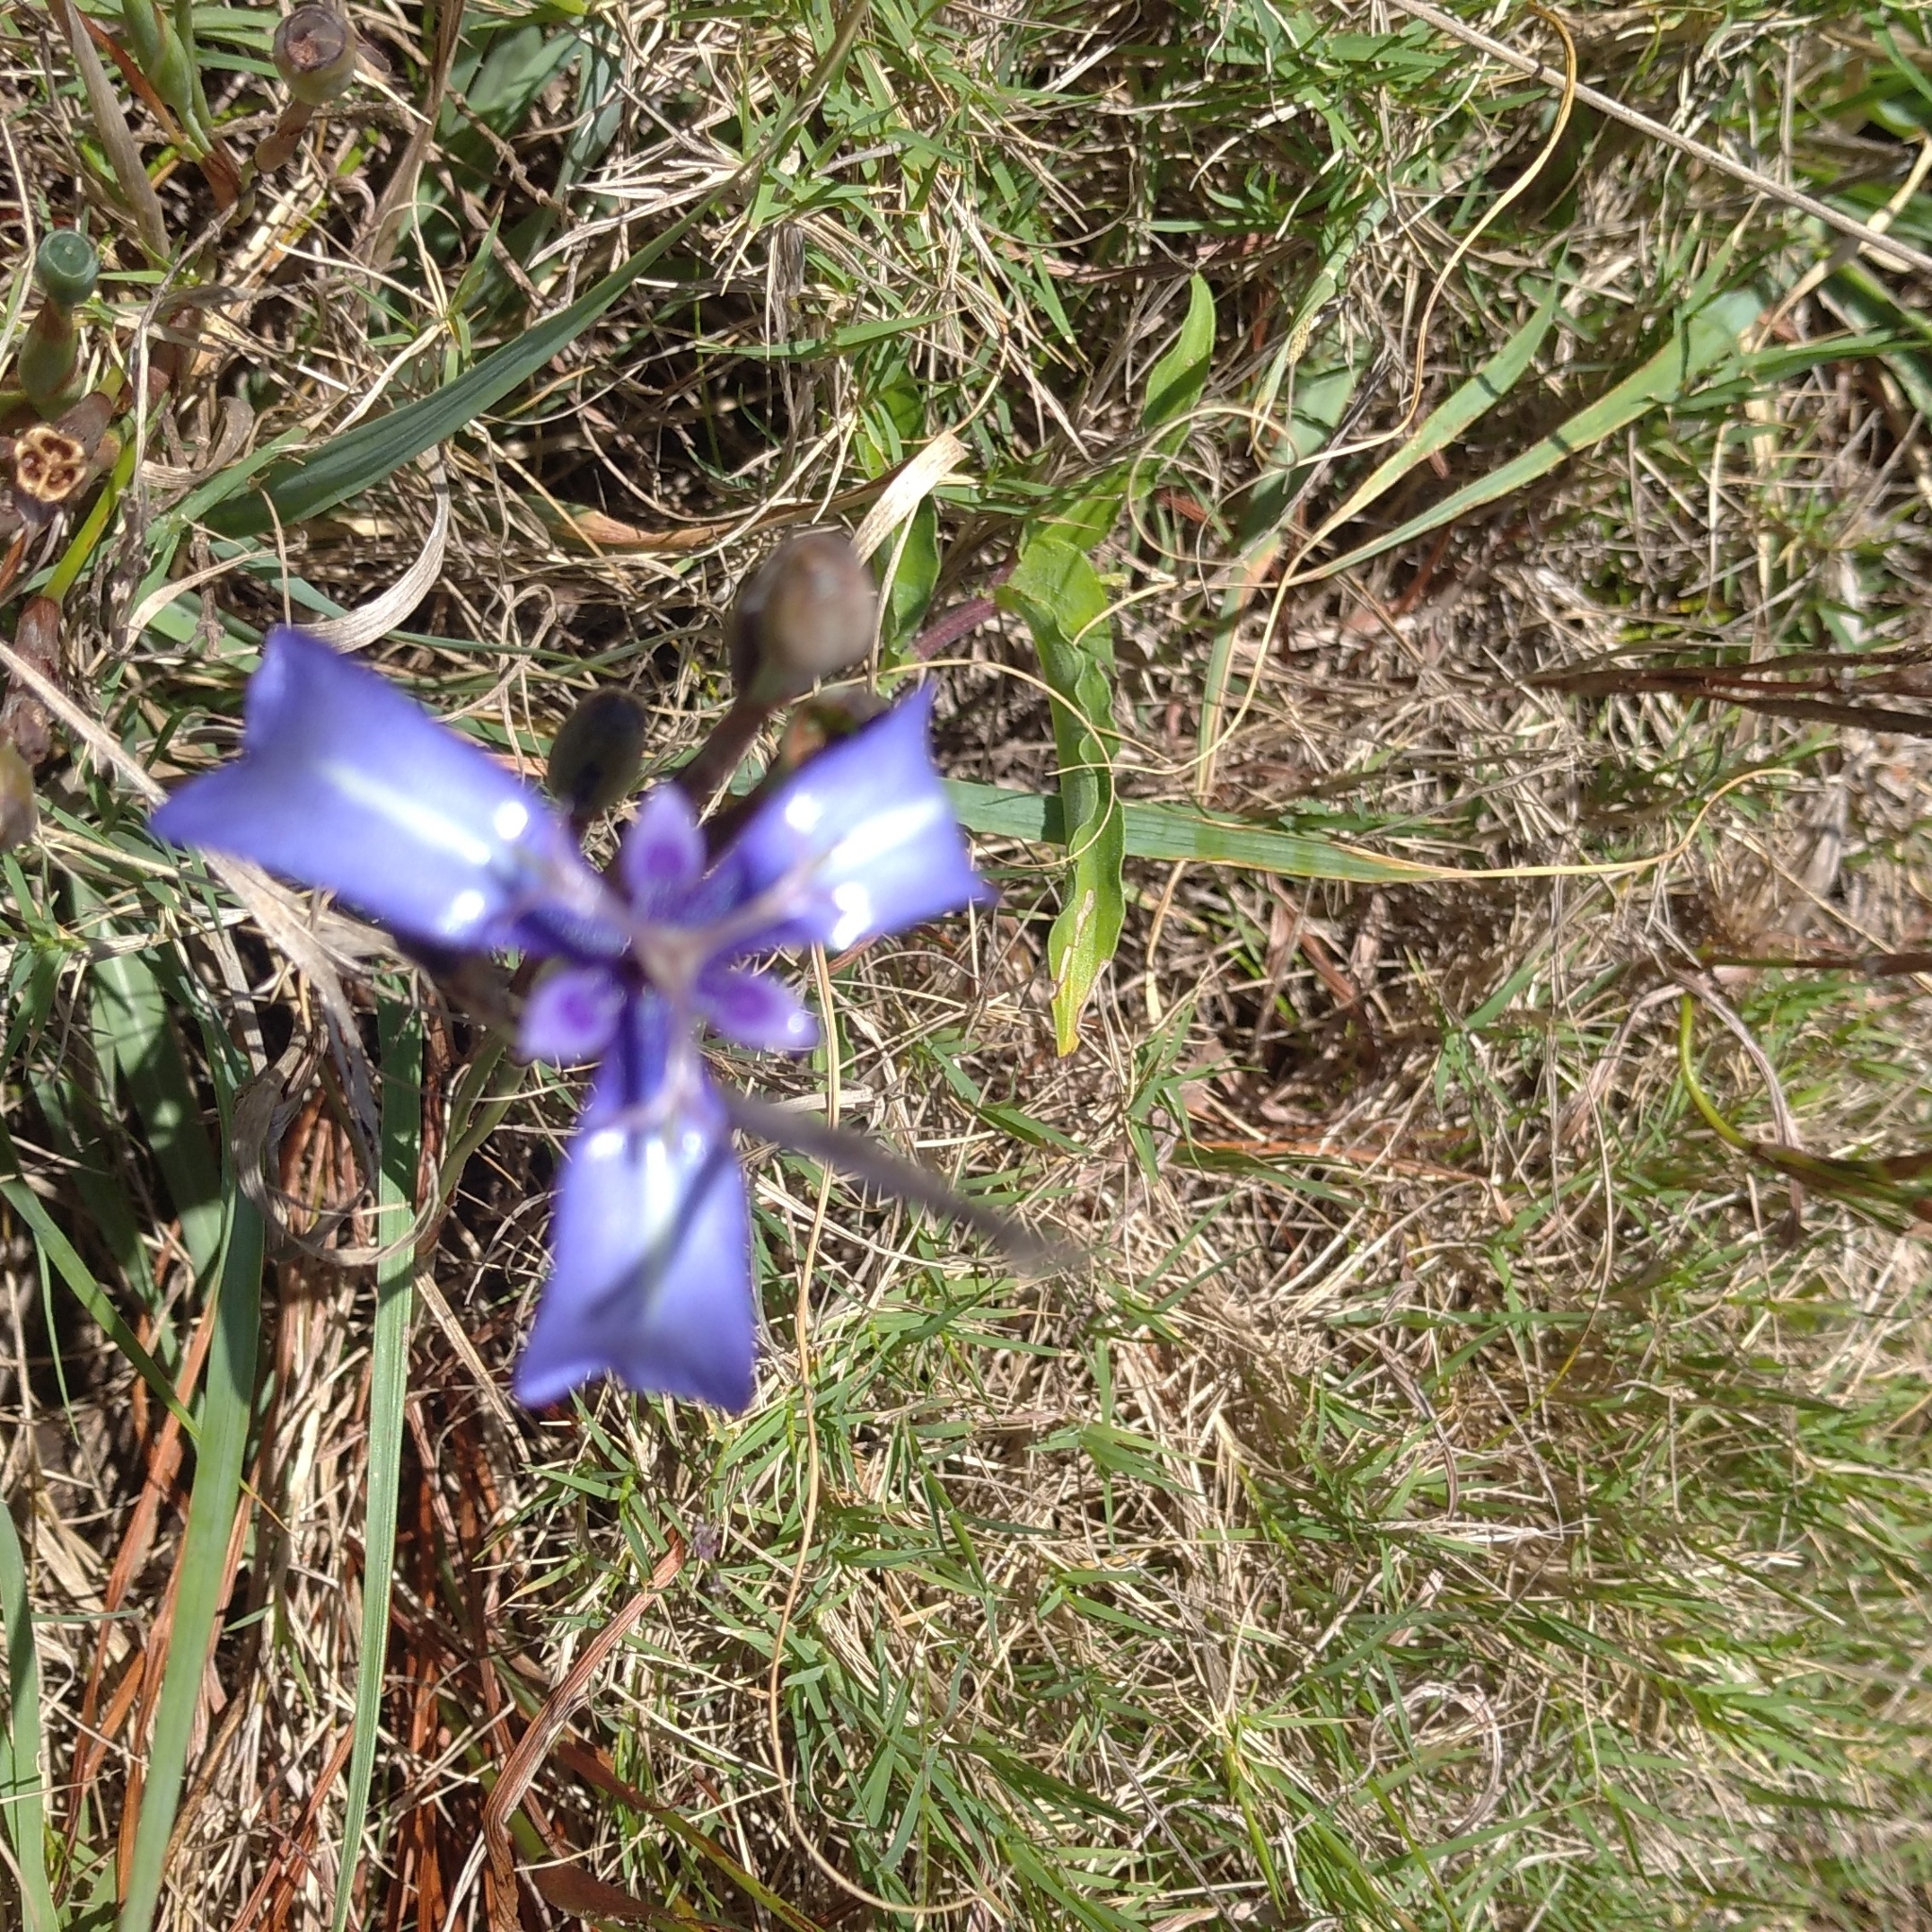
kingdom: Plantae
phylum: Tracheophyta
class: Liliopsida
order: Asparagales
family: Iridaceae
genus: Herbertia
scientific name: Herbertia pulchella
